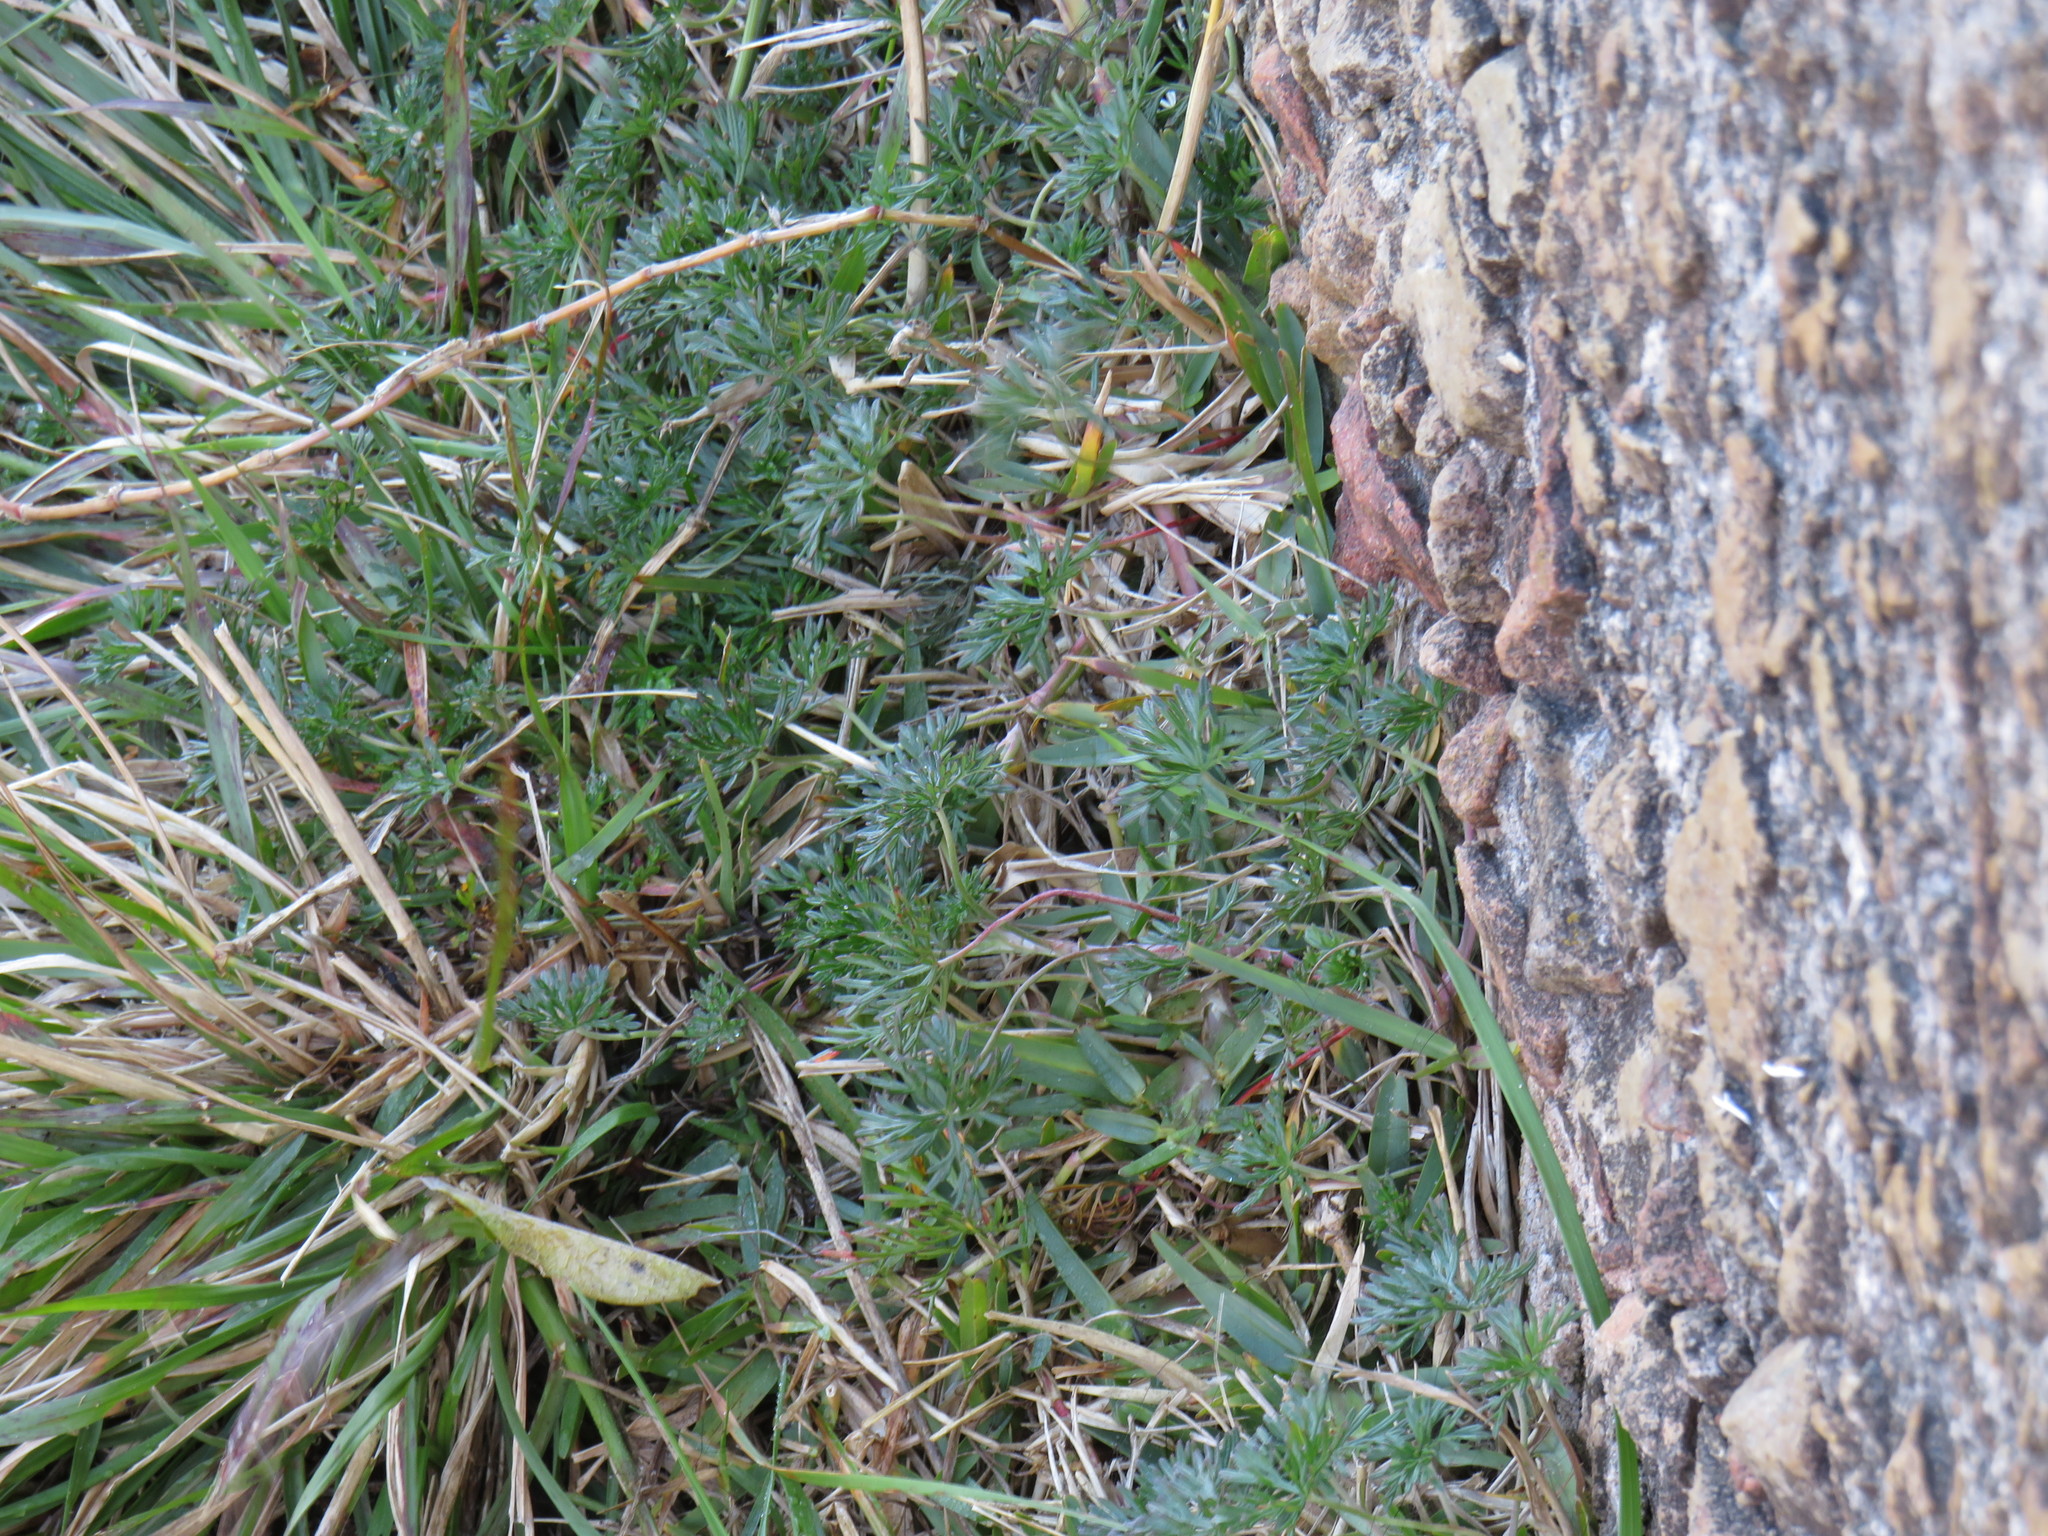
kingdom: Plantae
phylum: Tracheophyta
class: Magnoliopsida
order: Geraniales
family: Geraniaceae
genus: Geranium
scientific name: Geranium incanum
